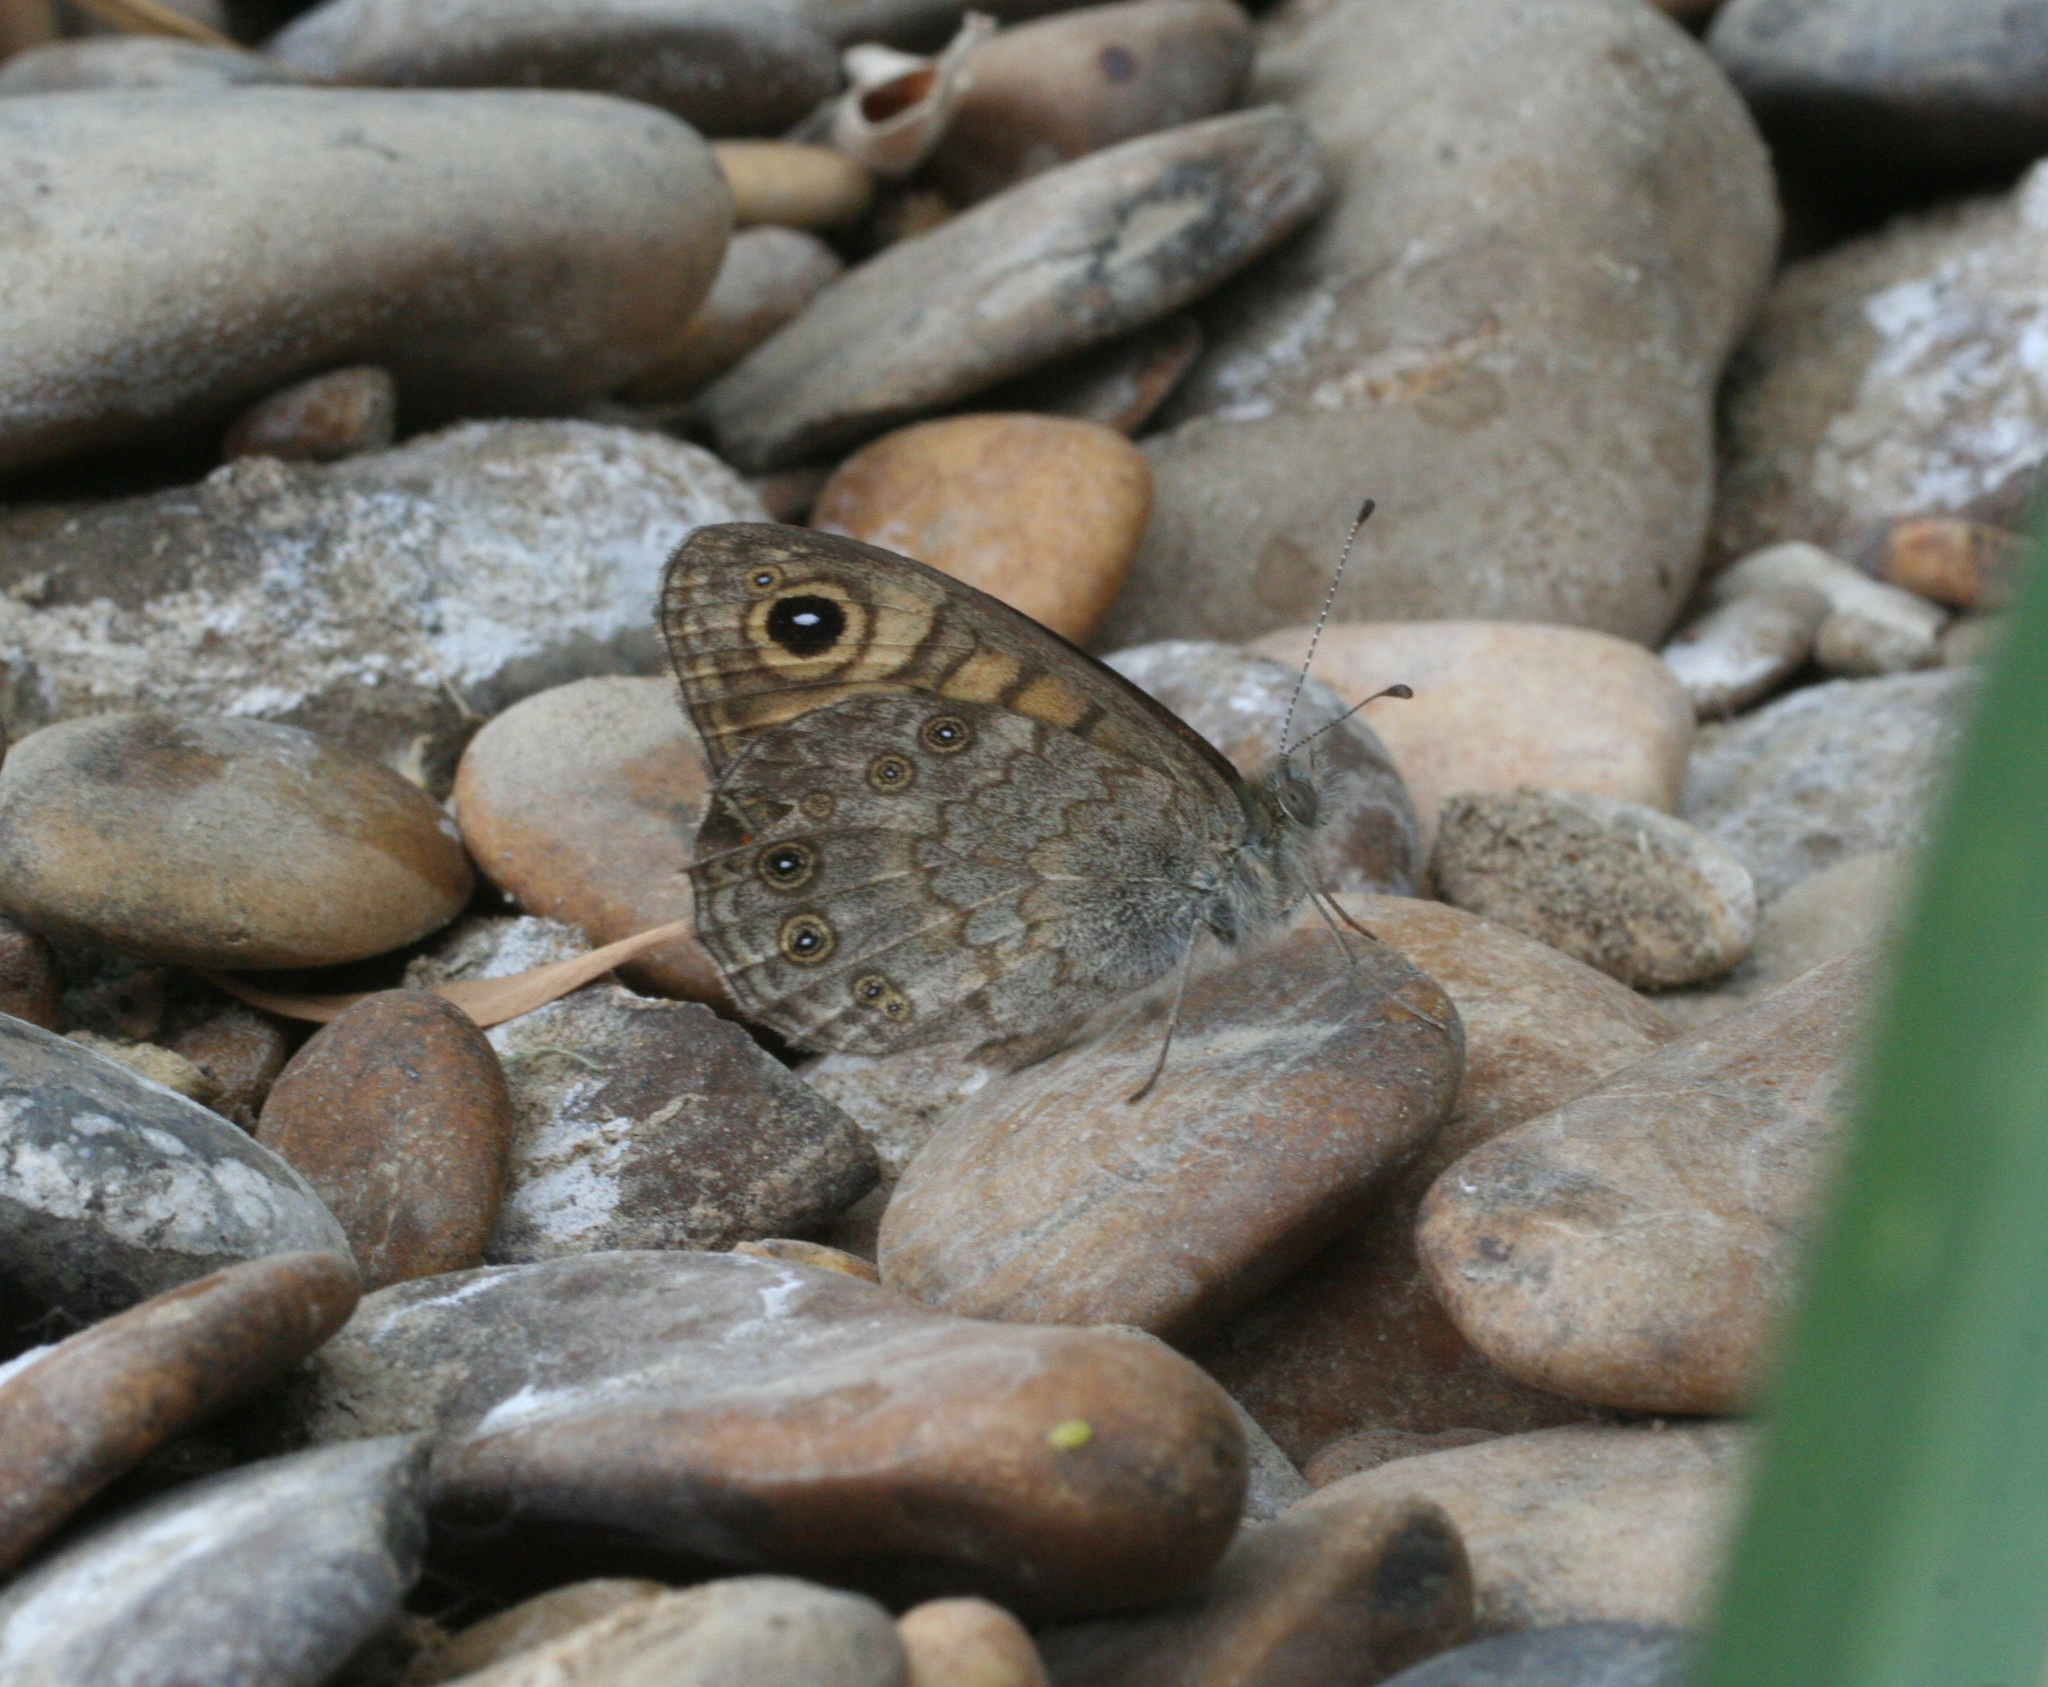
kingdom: Animalia
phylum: Arthropoda
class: Insecta
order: Lepidoptera
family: Nymphalidae
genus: Pararge
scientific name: Pararge Lasiommata megera
